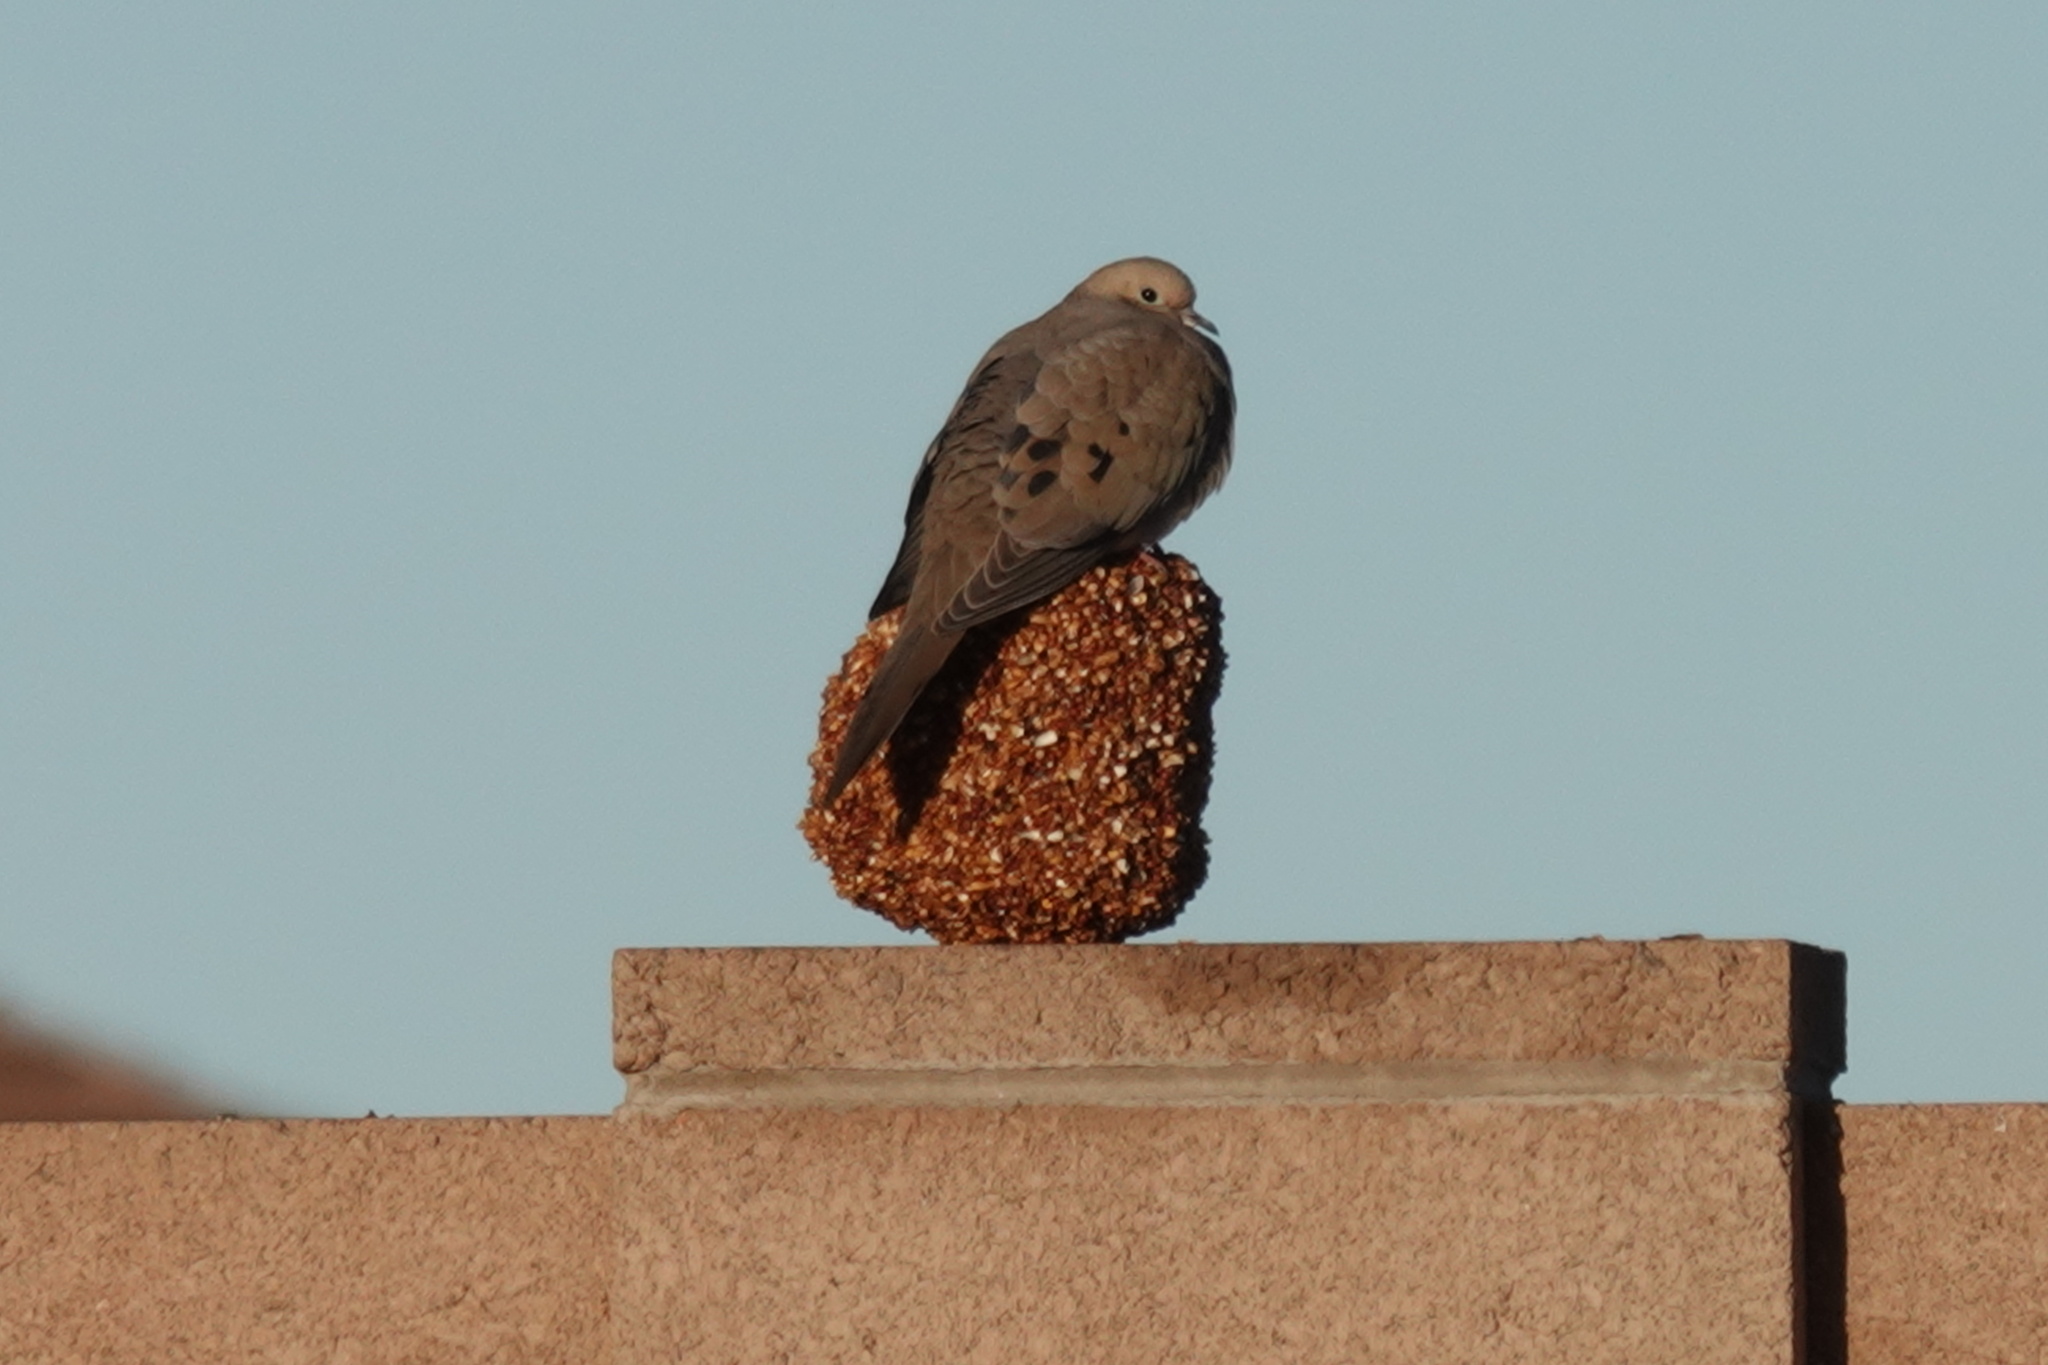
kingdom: Animalia
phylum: Chordata
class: Aves
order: Columbiformes
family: Columbidae
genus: Zenaida
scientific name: Zenaida macroura
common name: Mourning dove
